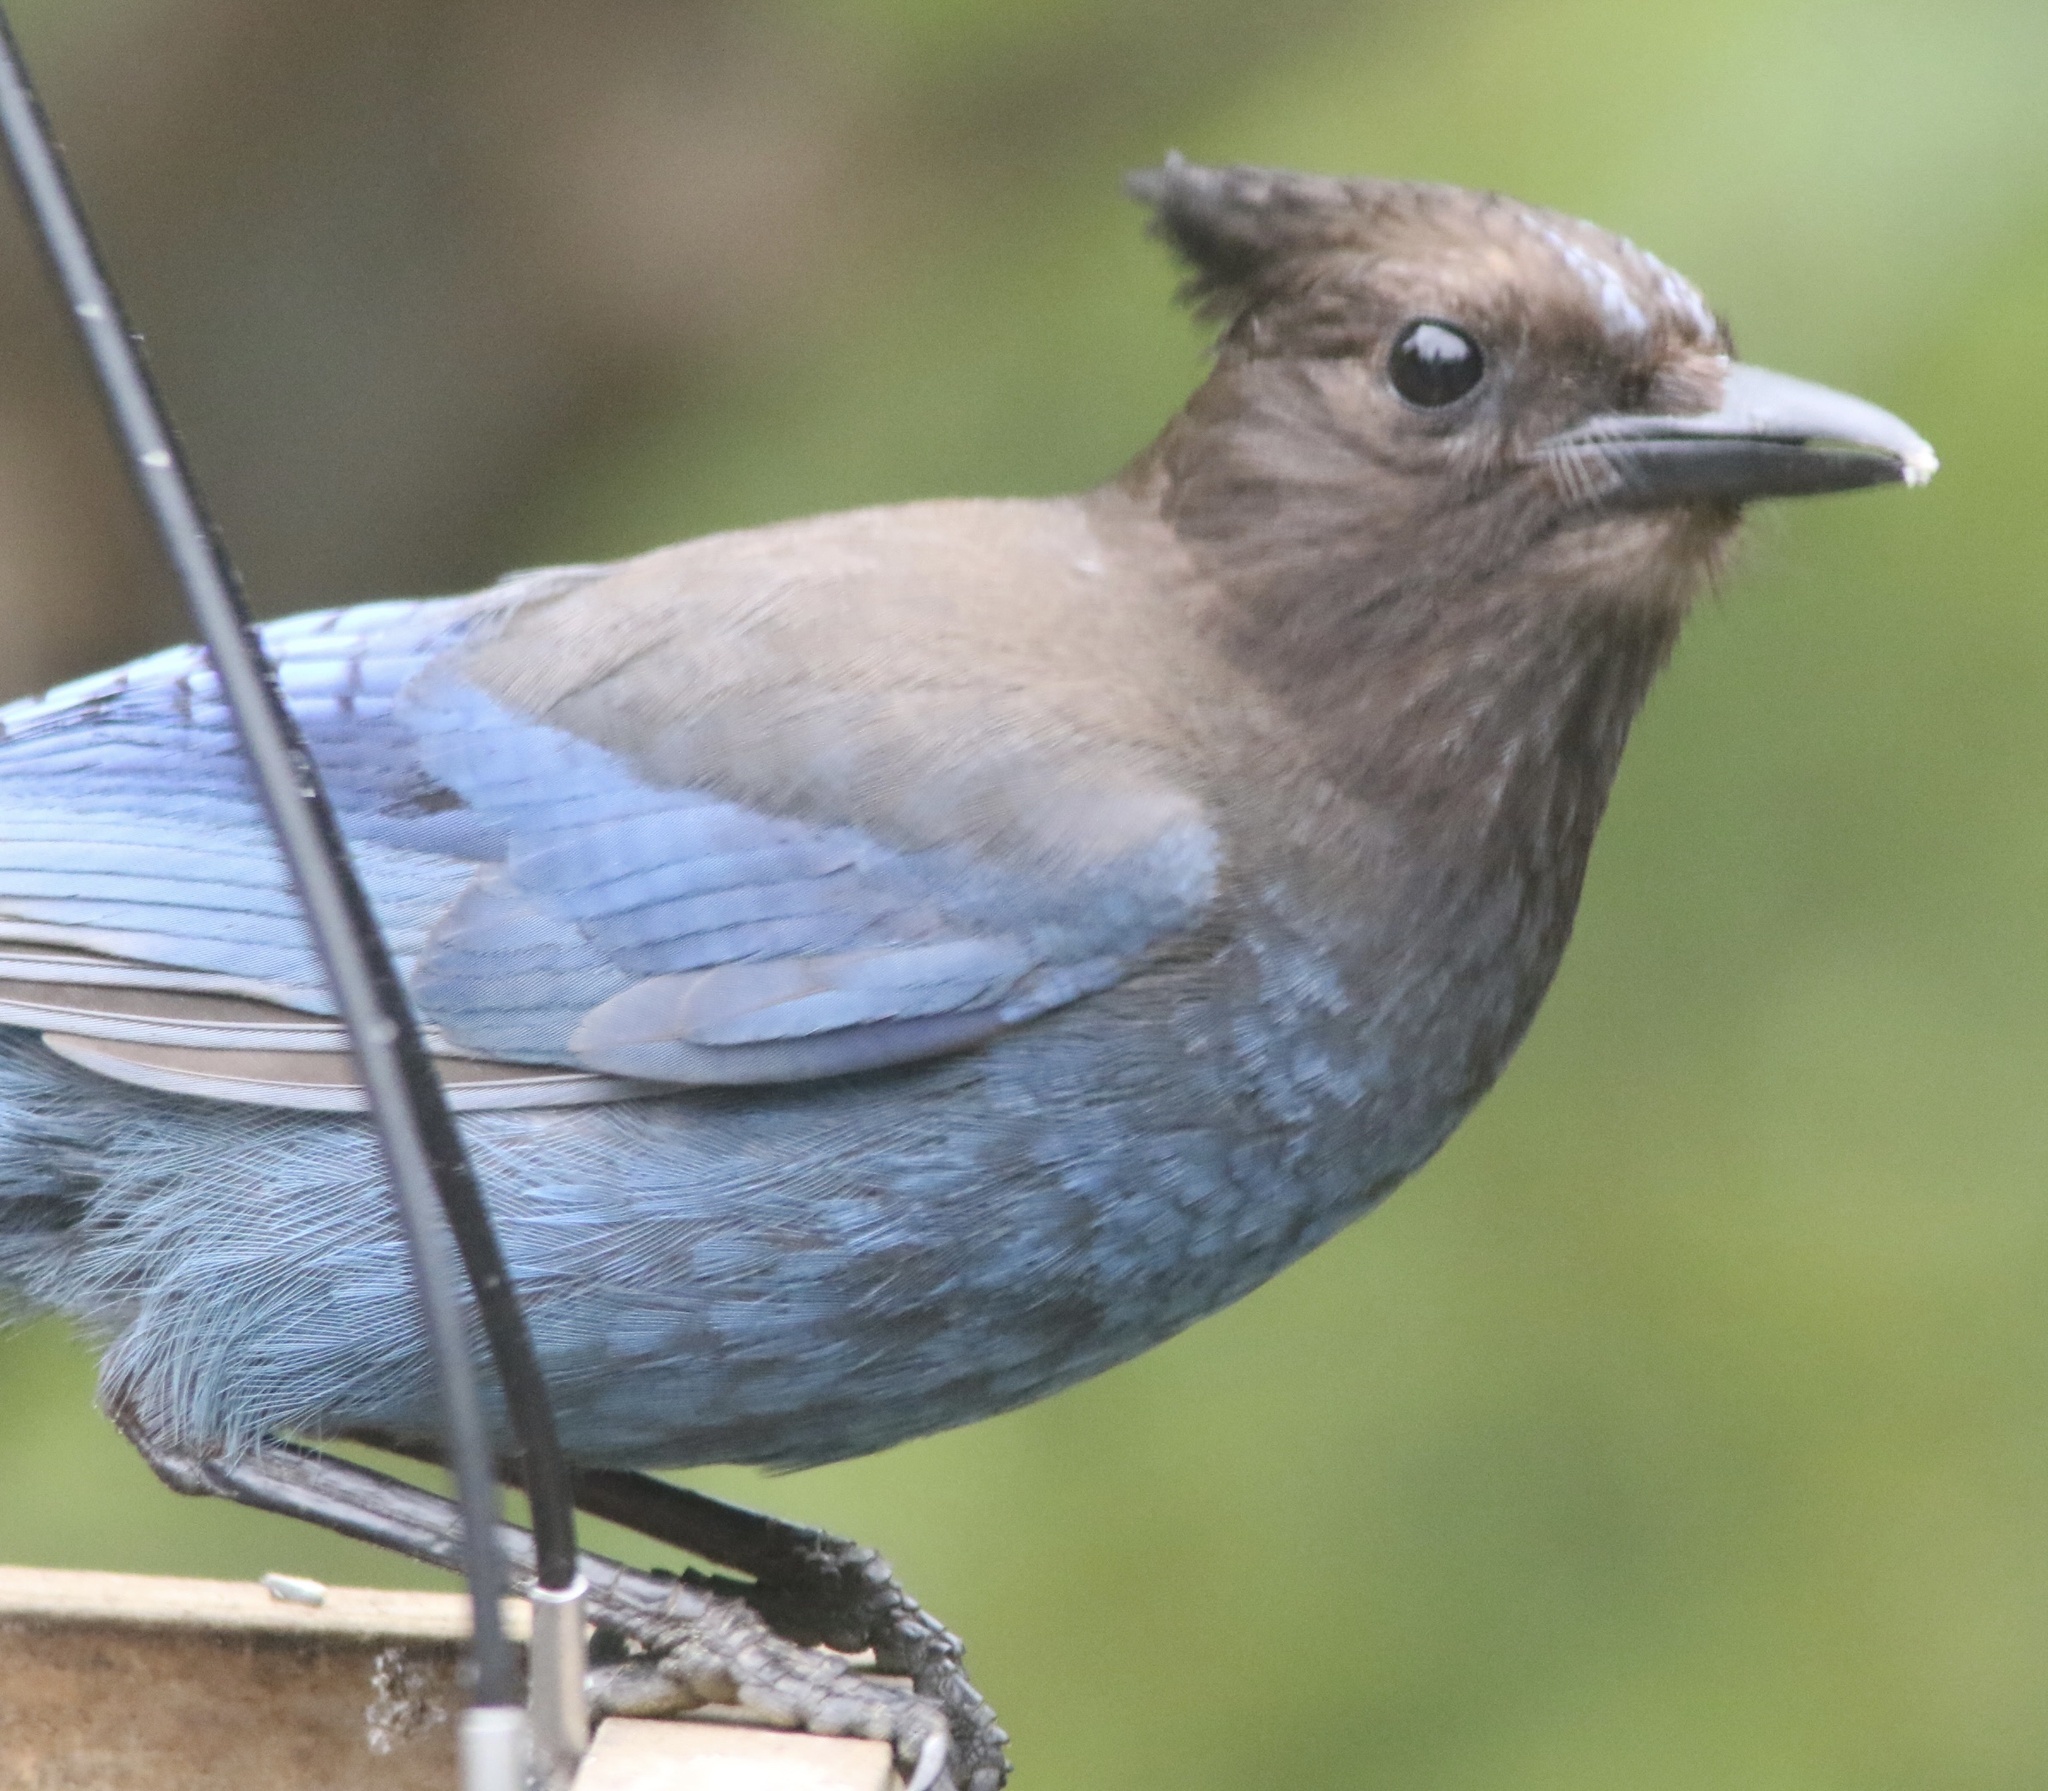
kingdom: Animalia
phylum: Chordata
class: Aves
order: Passeriformes
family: Corvidae
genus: Cyanocitta
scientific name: Cyanocitta stelleri
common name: Steller's jay
